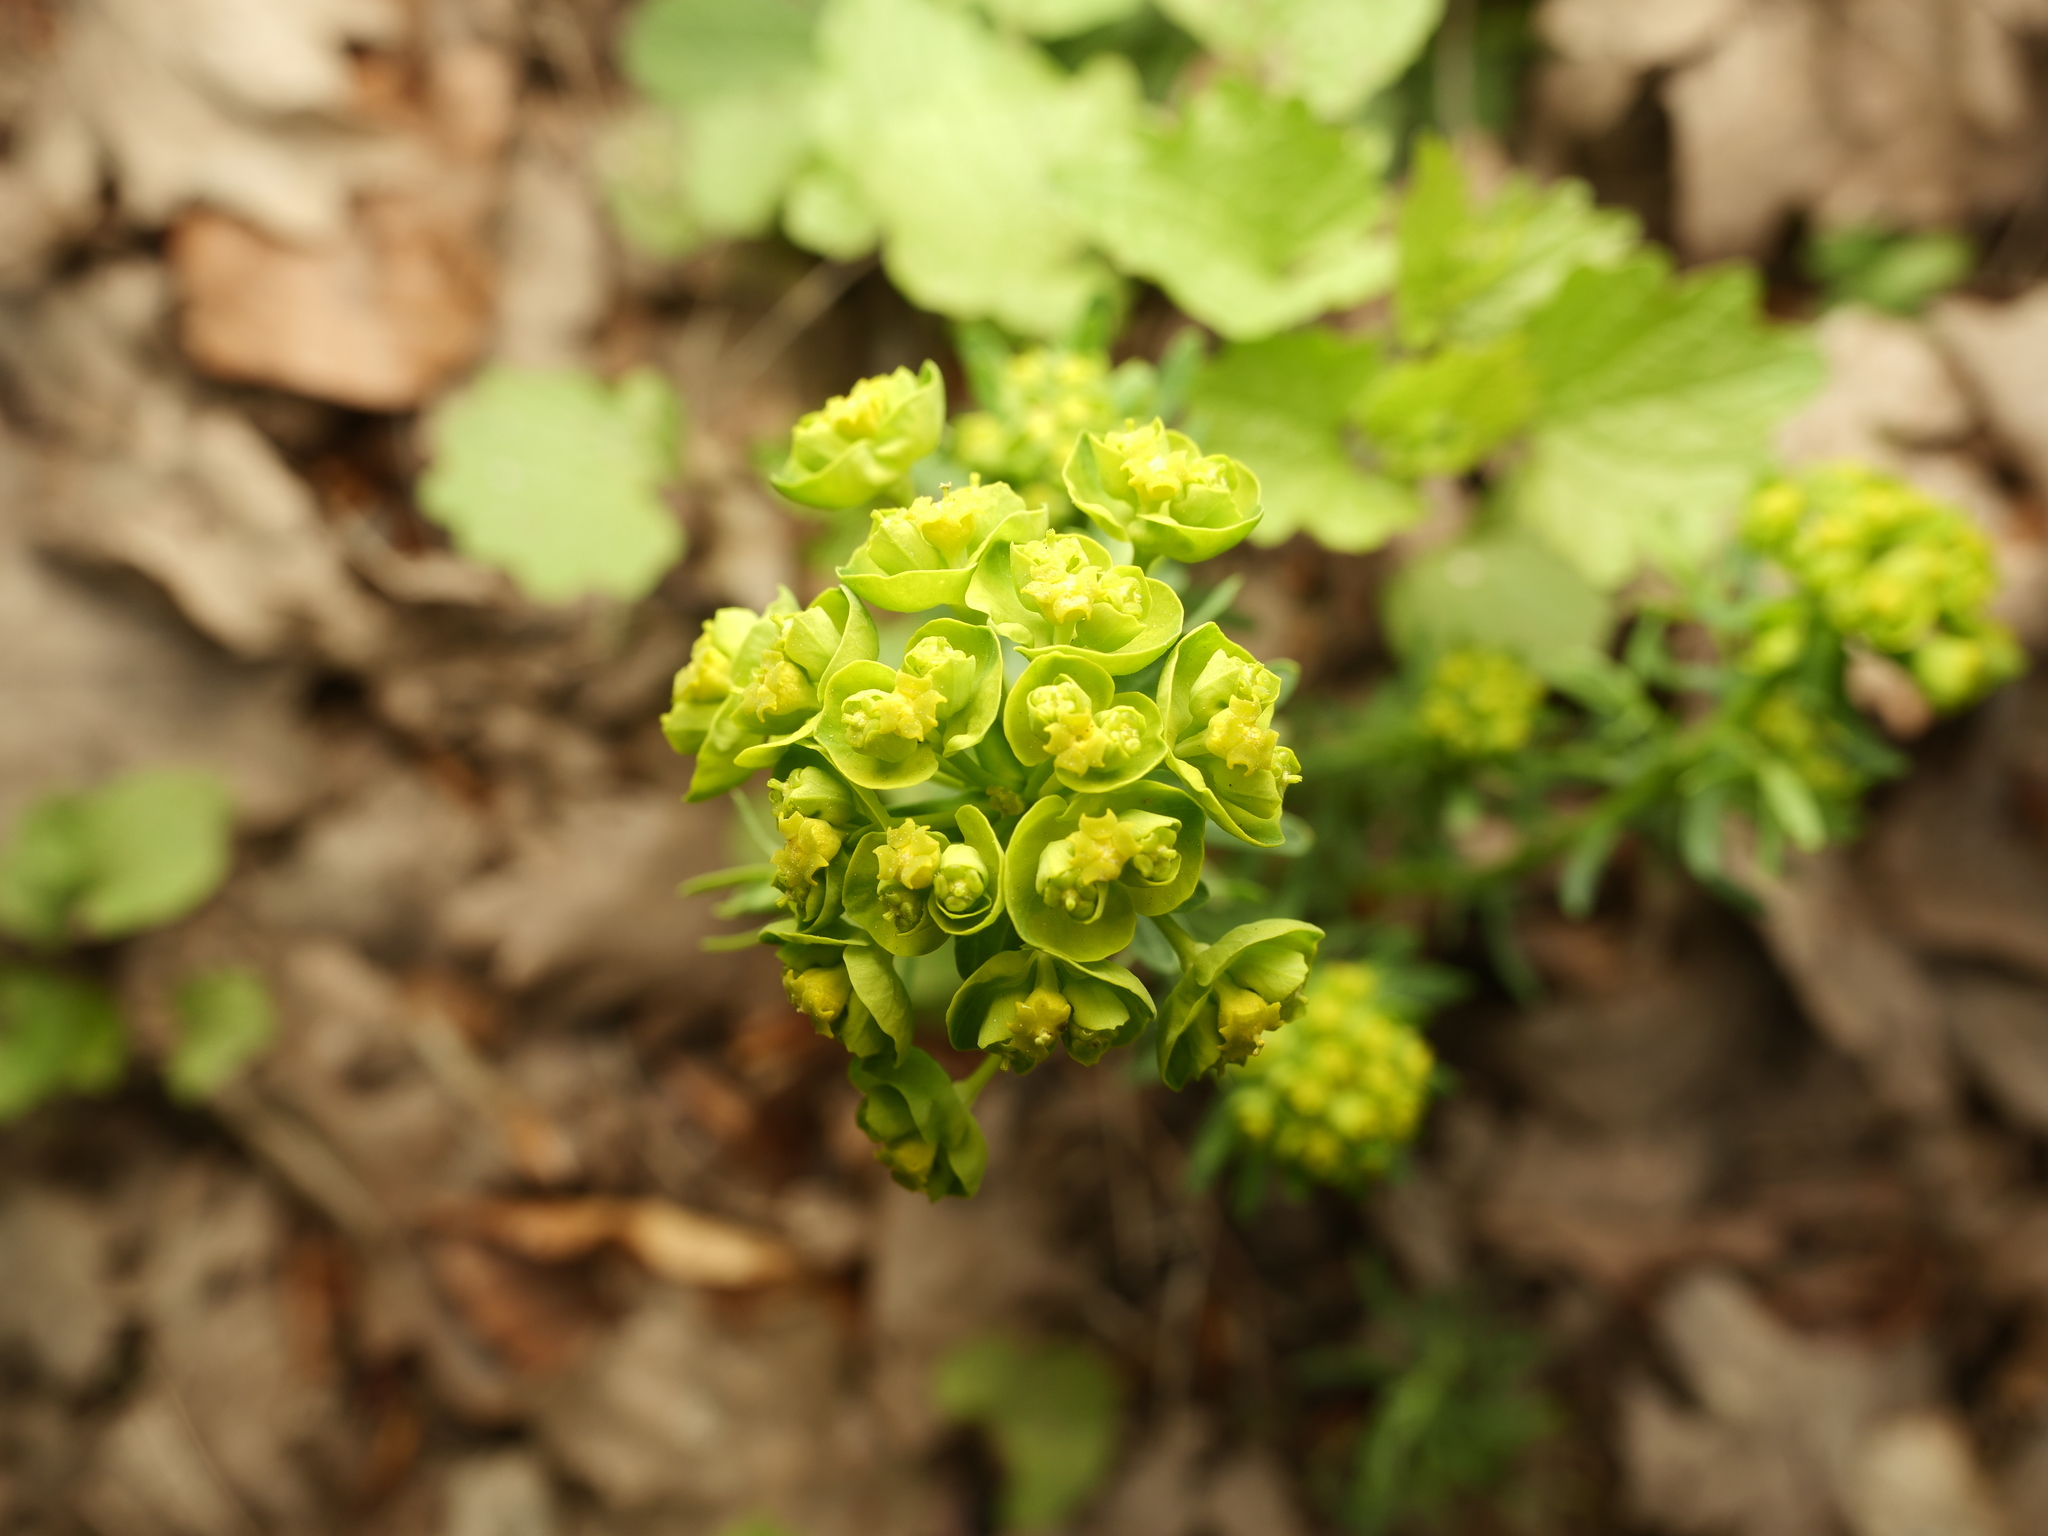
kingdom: Plantae
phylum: Tracheophyta
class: Magnoliopsida
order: Malpighiales
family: Euphorbiaceae
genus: Euphorbia
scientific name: Euphorbia cyparissias
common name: Cypress spurge
